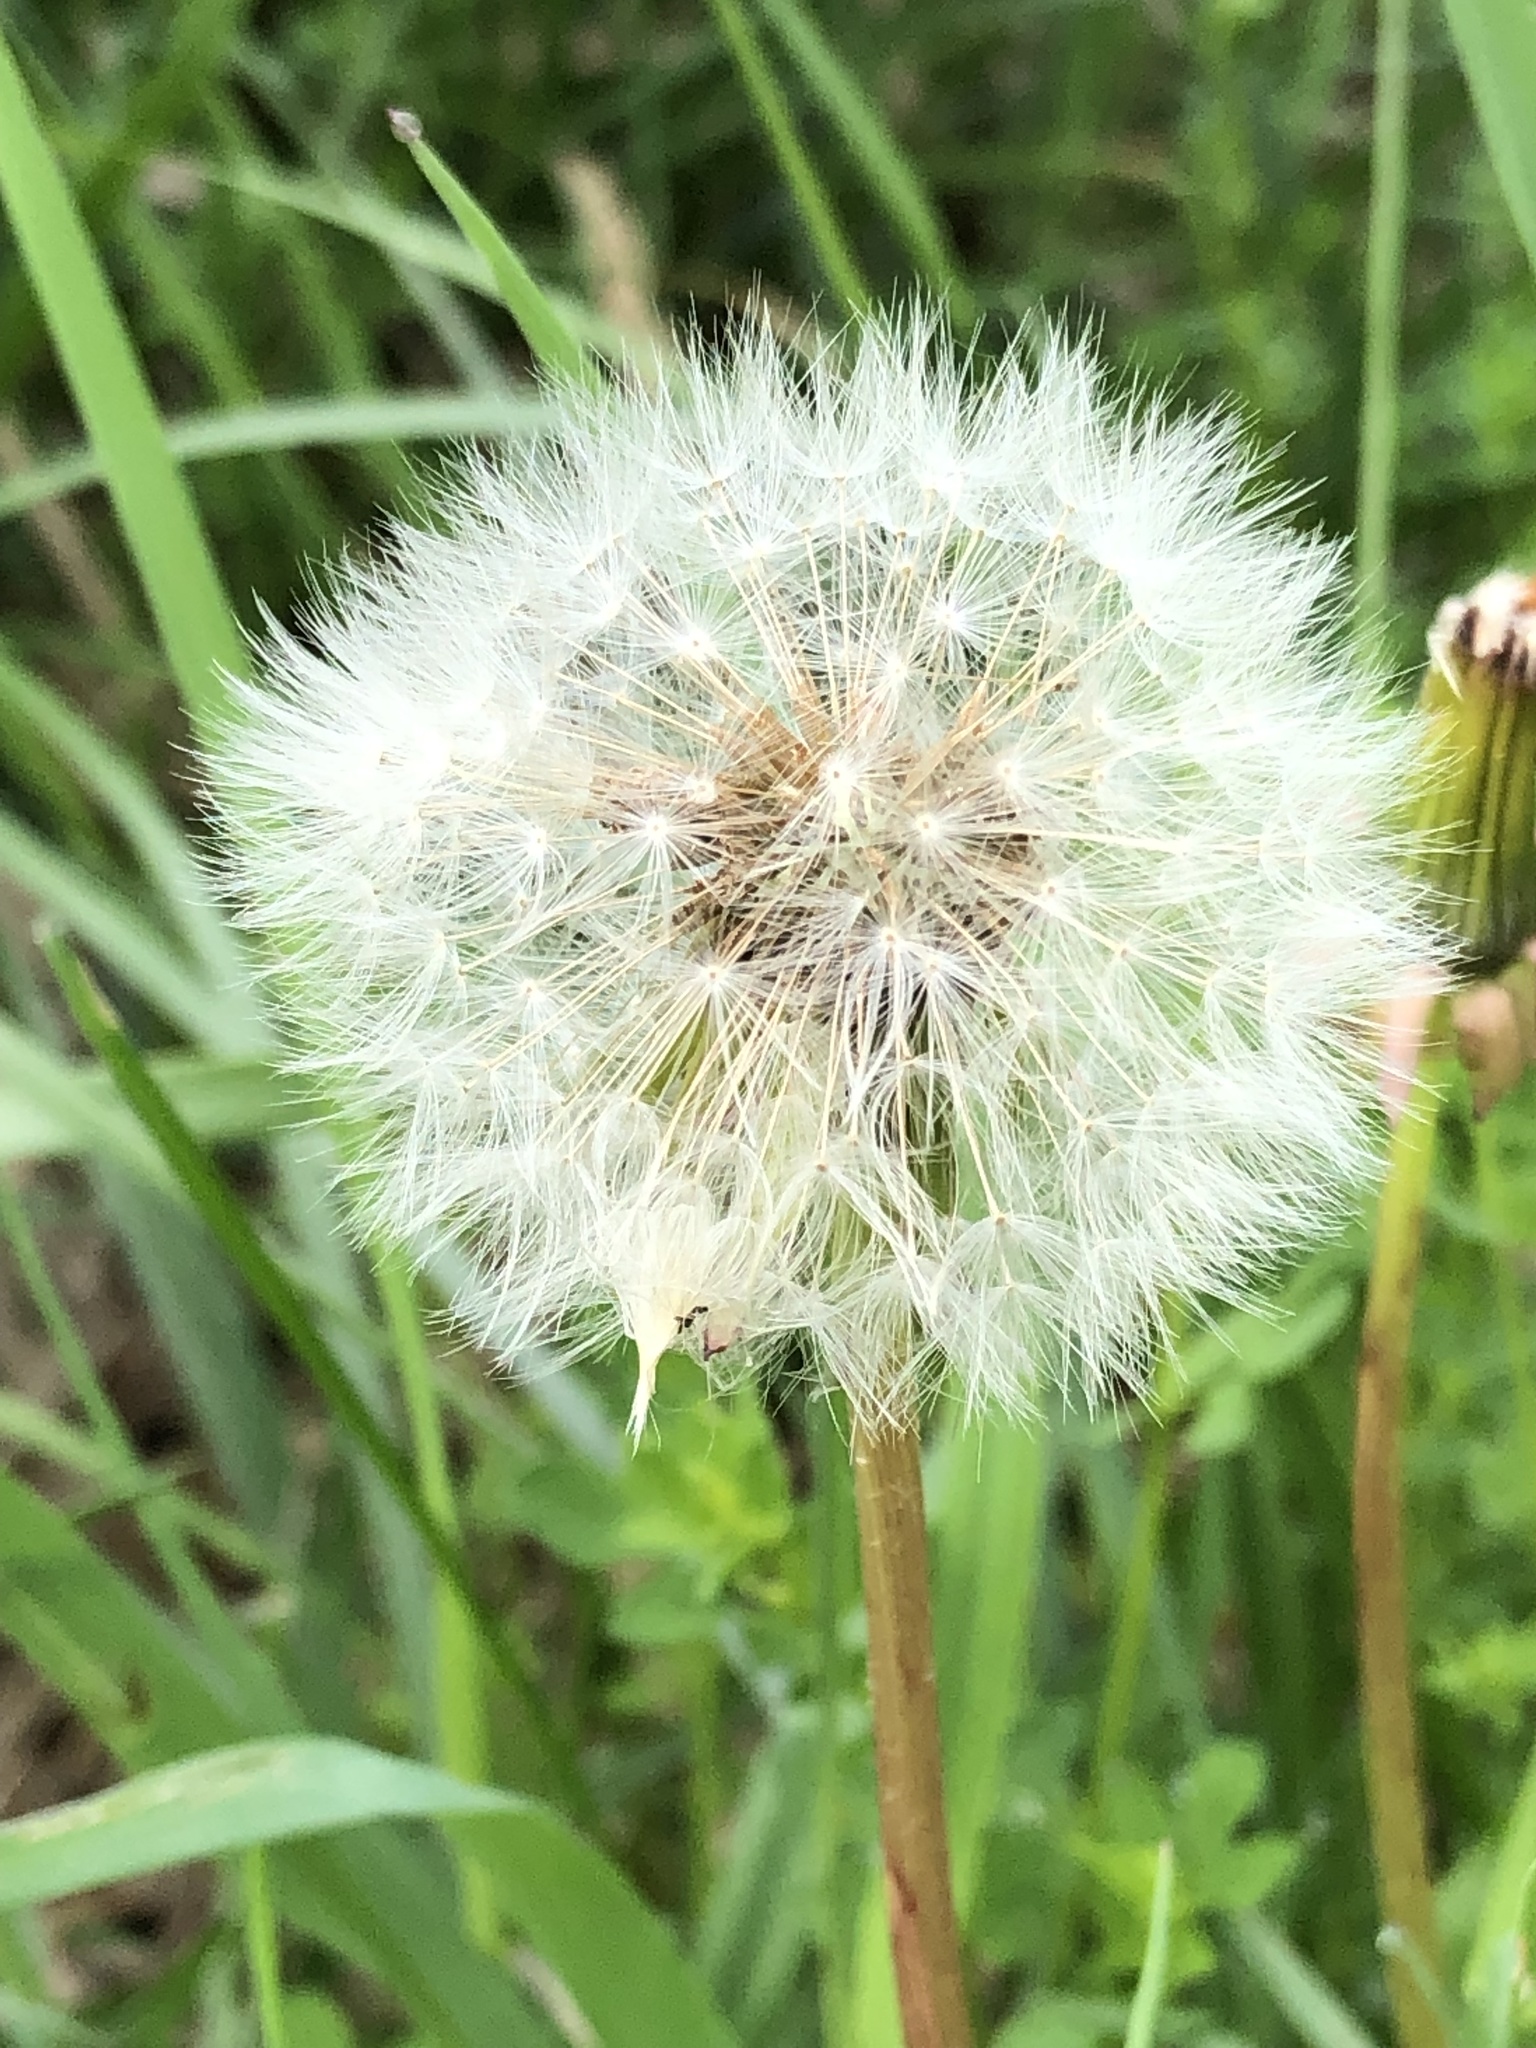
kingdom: Plantae
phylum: Tracheophyta
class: Magnoliopsida
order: Asterales
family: Asteraceae
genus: Taraxacum
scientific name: Taraxacum officinale
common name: Common dandelion
